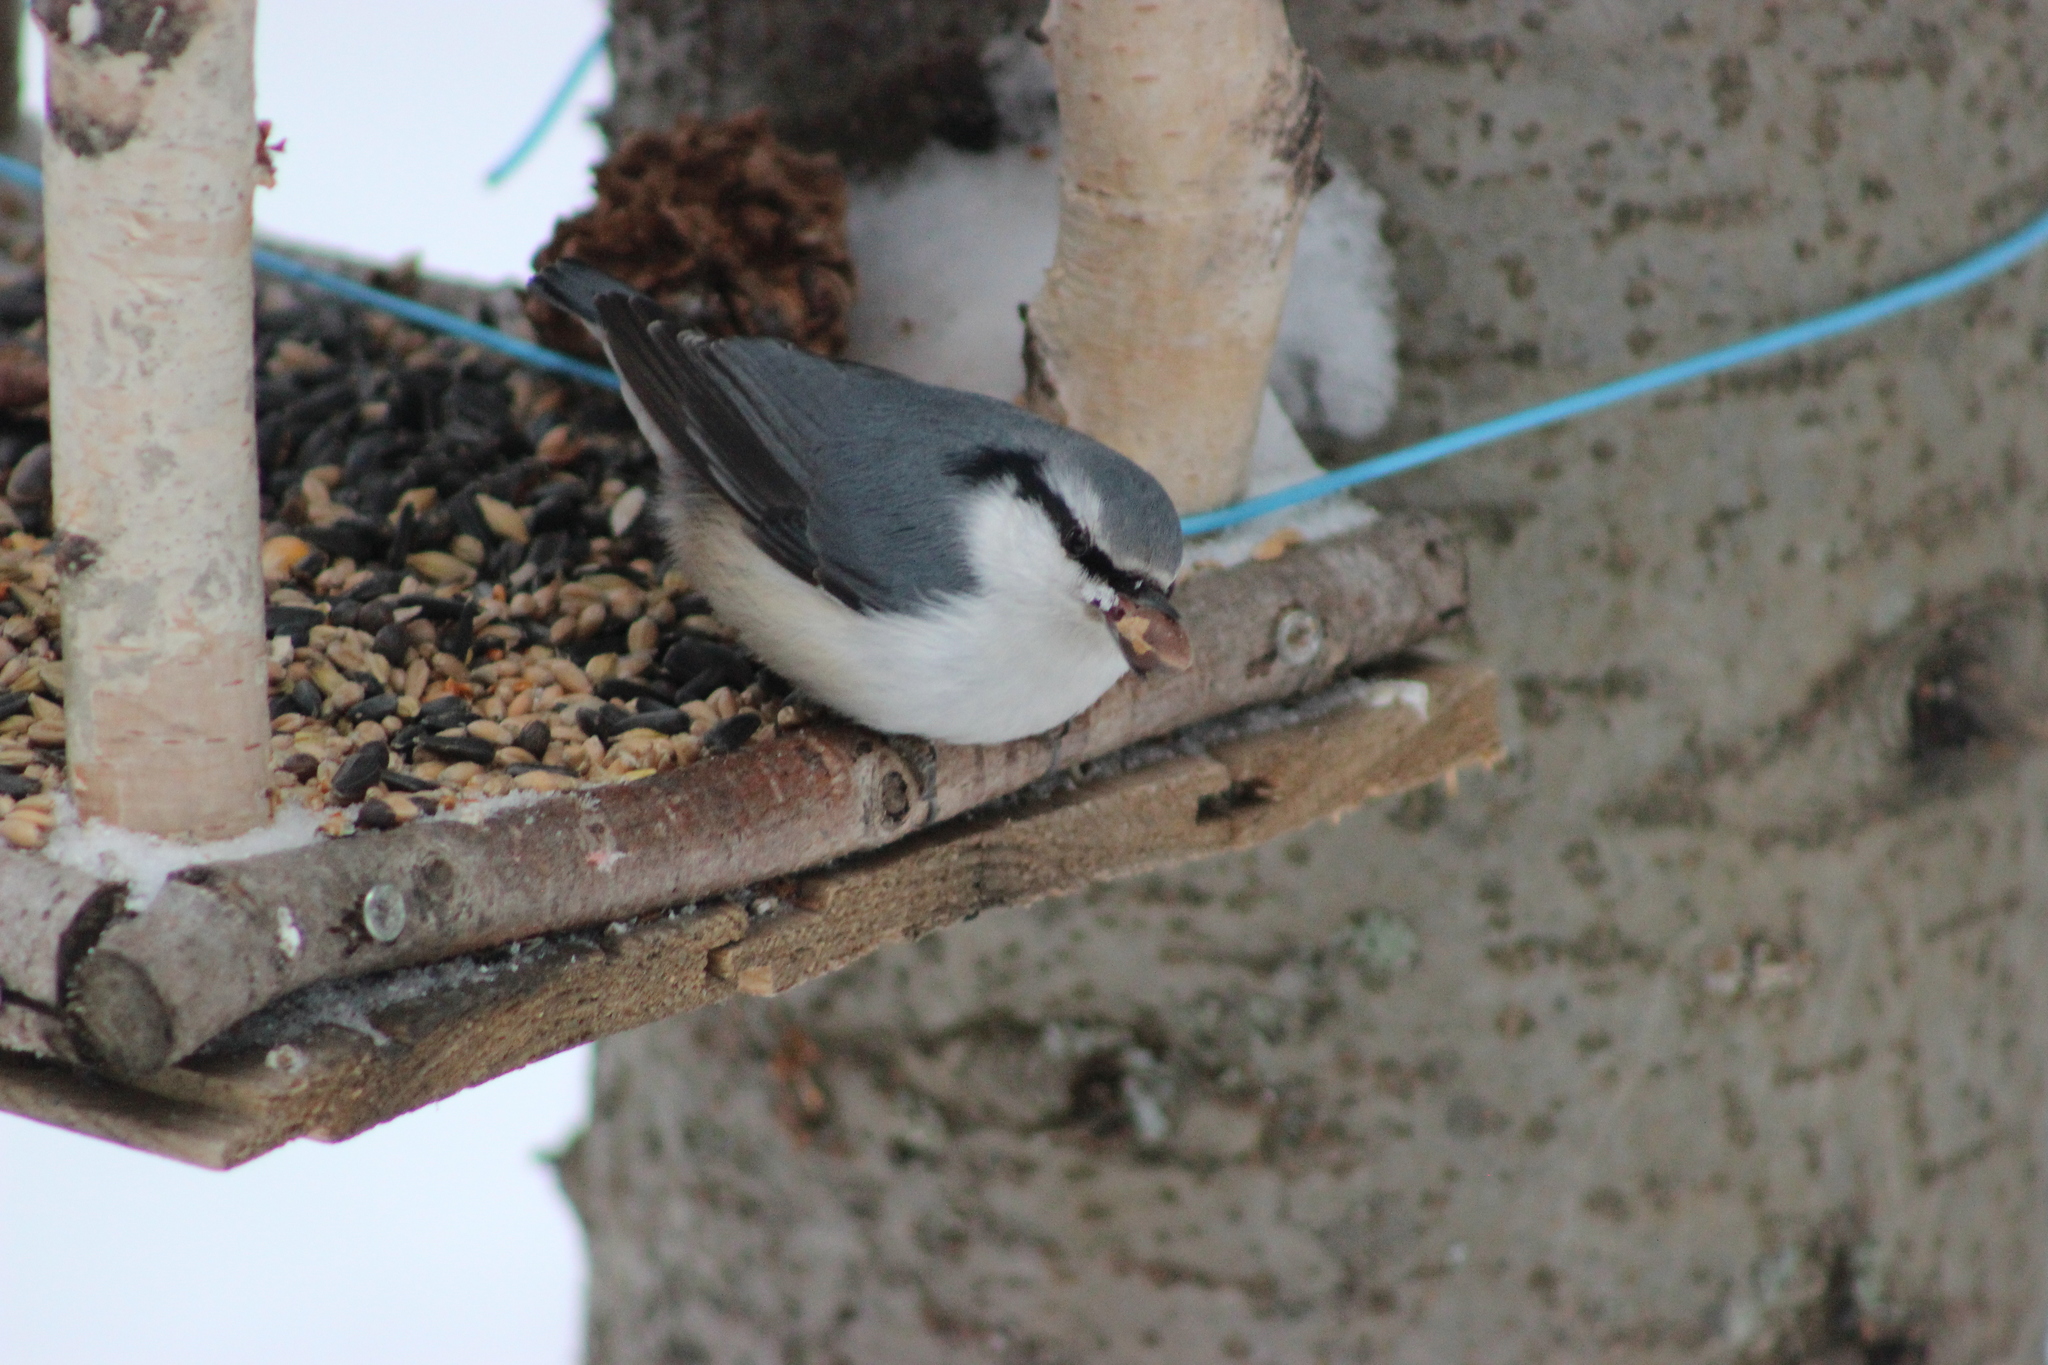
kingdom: Animalia
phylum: Chordata
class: Aves
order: Passeriformes
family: Sittidae
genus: Sitta
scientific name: Sitta europaea
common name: Eurasian nuthatch
